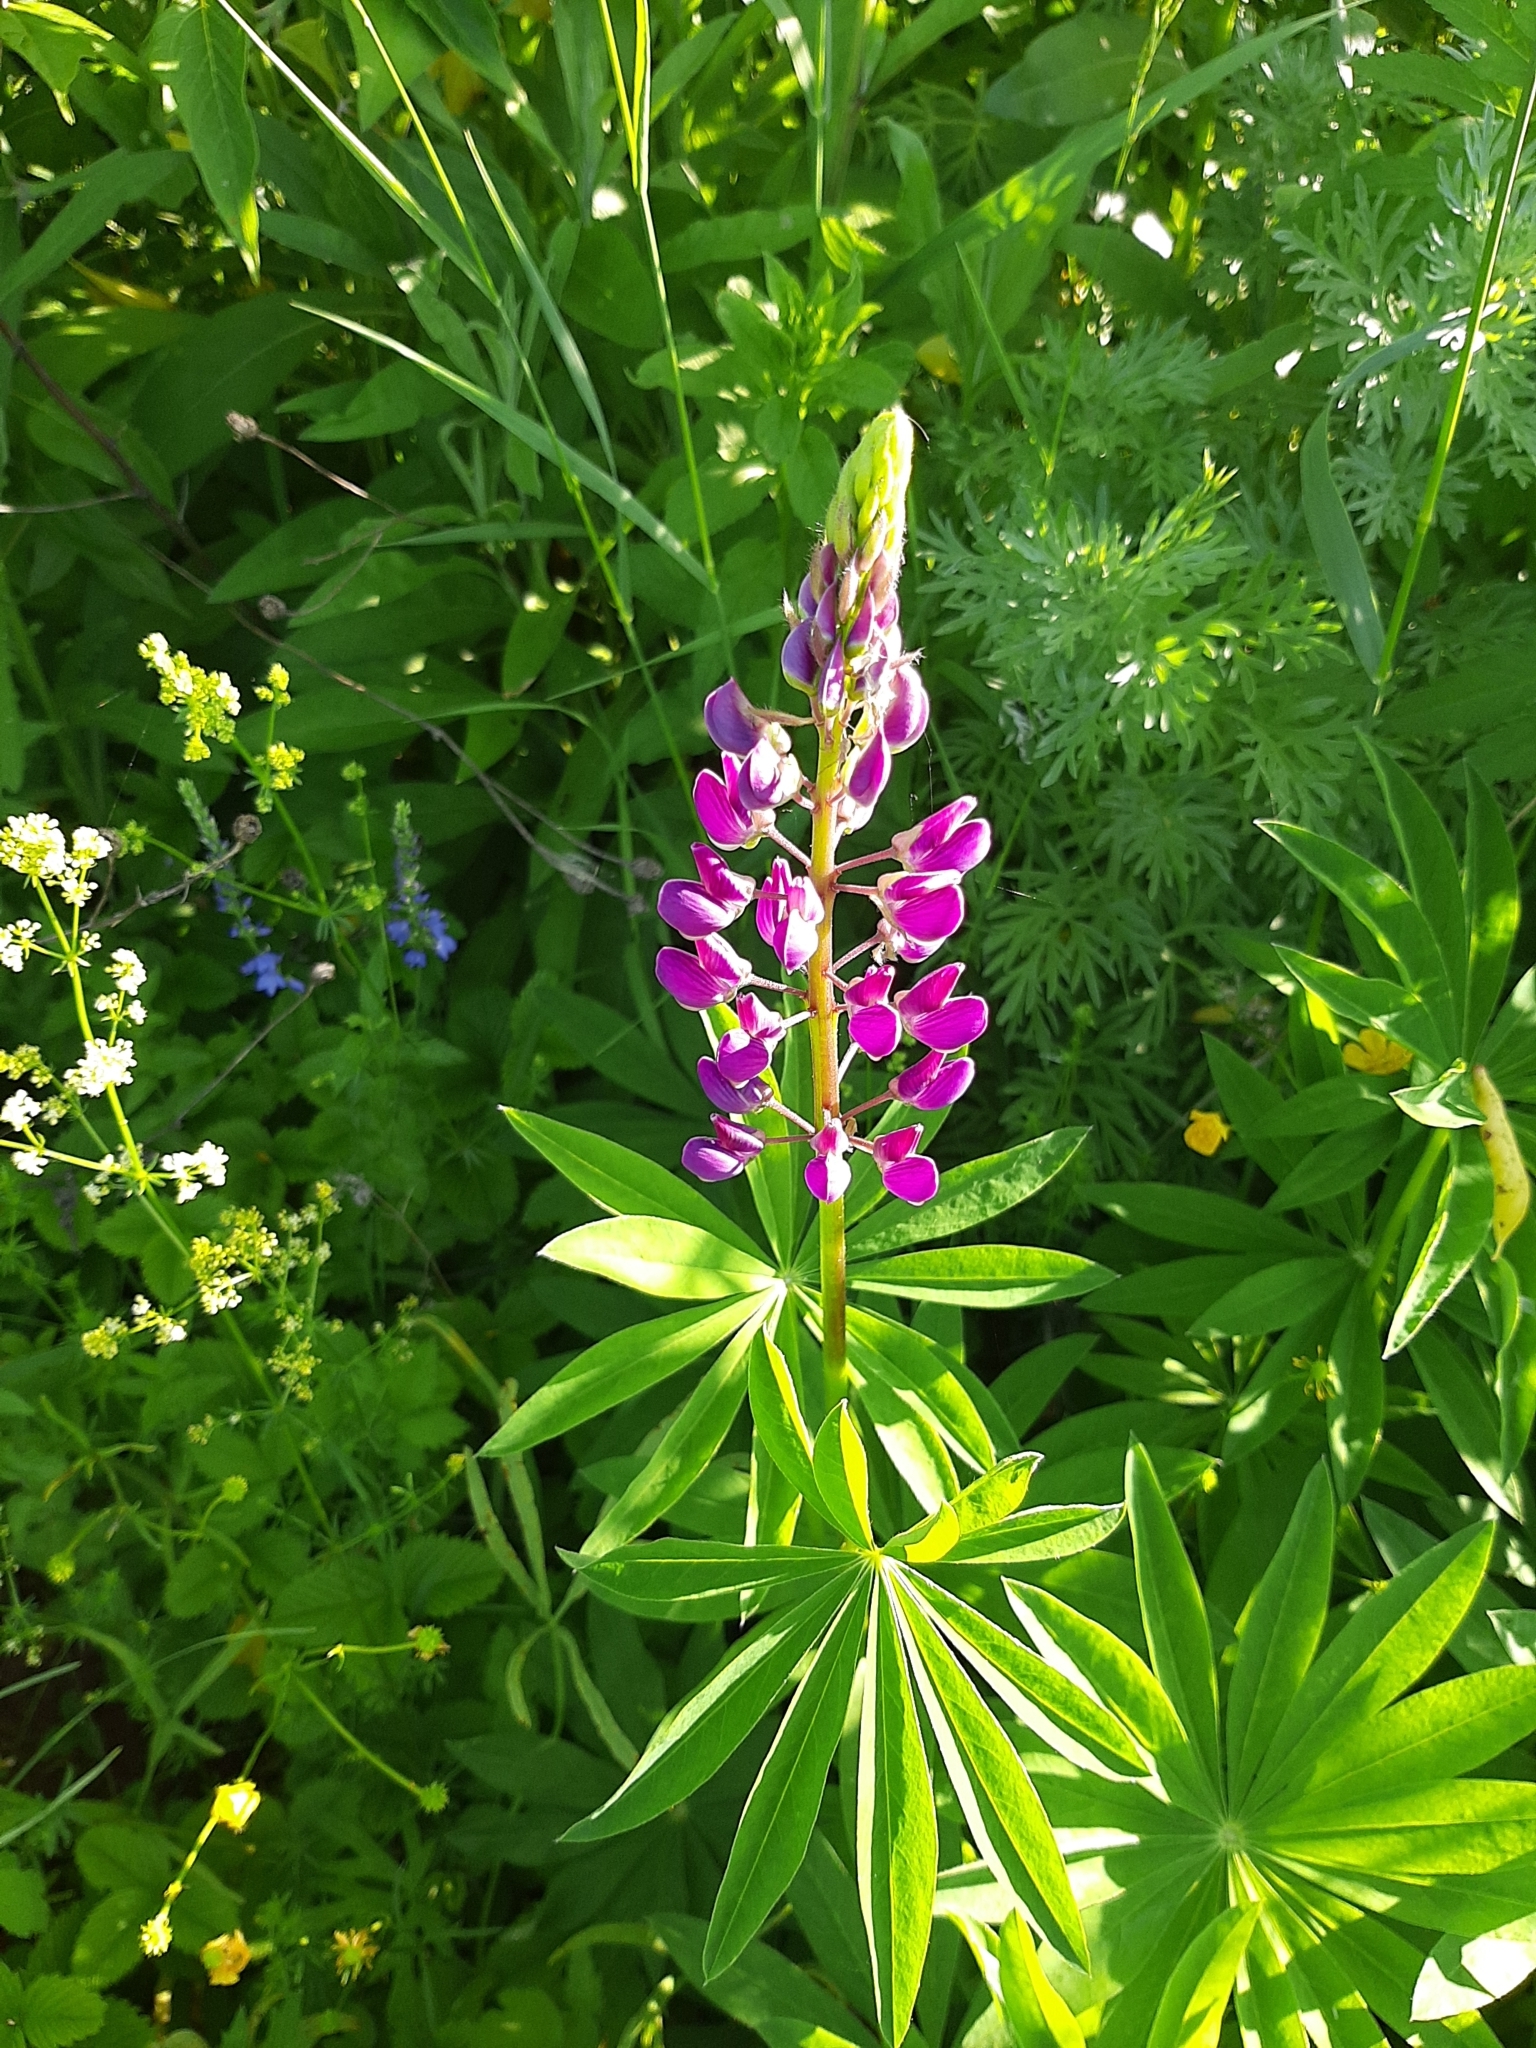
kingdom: Plantae
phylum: Tracheophyta
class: Magnoliopsida
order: Fabales
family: Fabaceae
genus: Lupinus
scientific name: Lupinus polyphyllus
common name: Garden lupin
